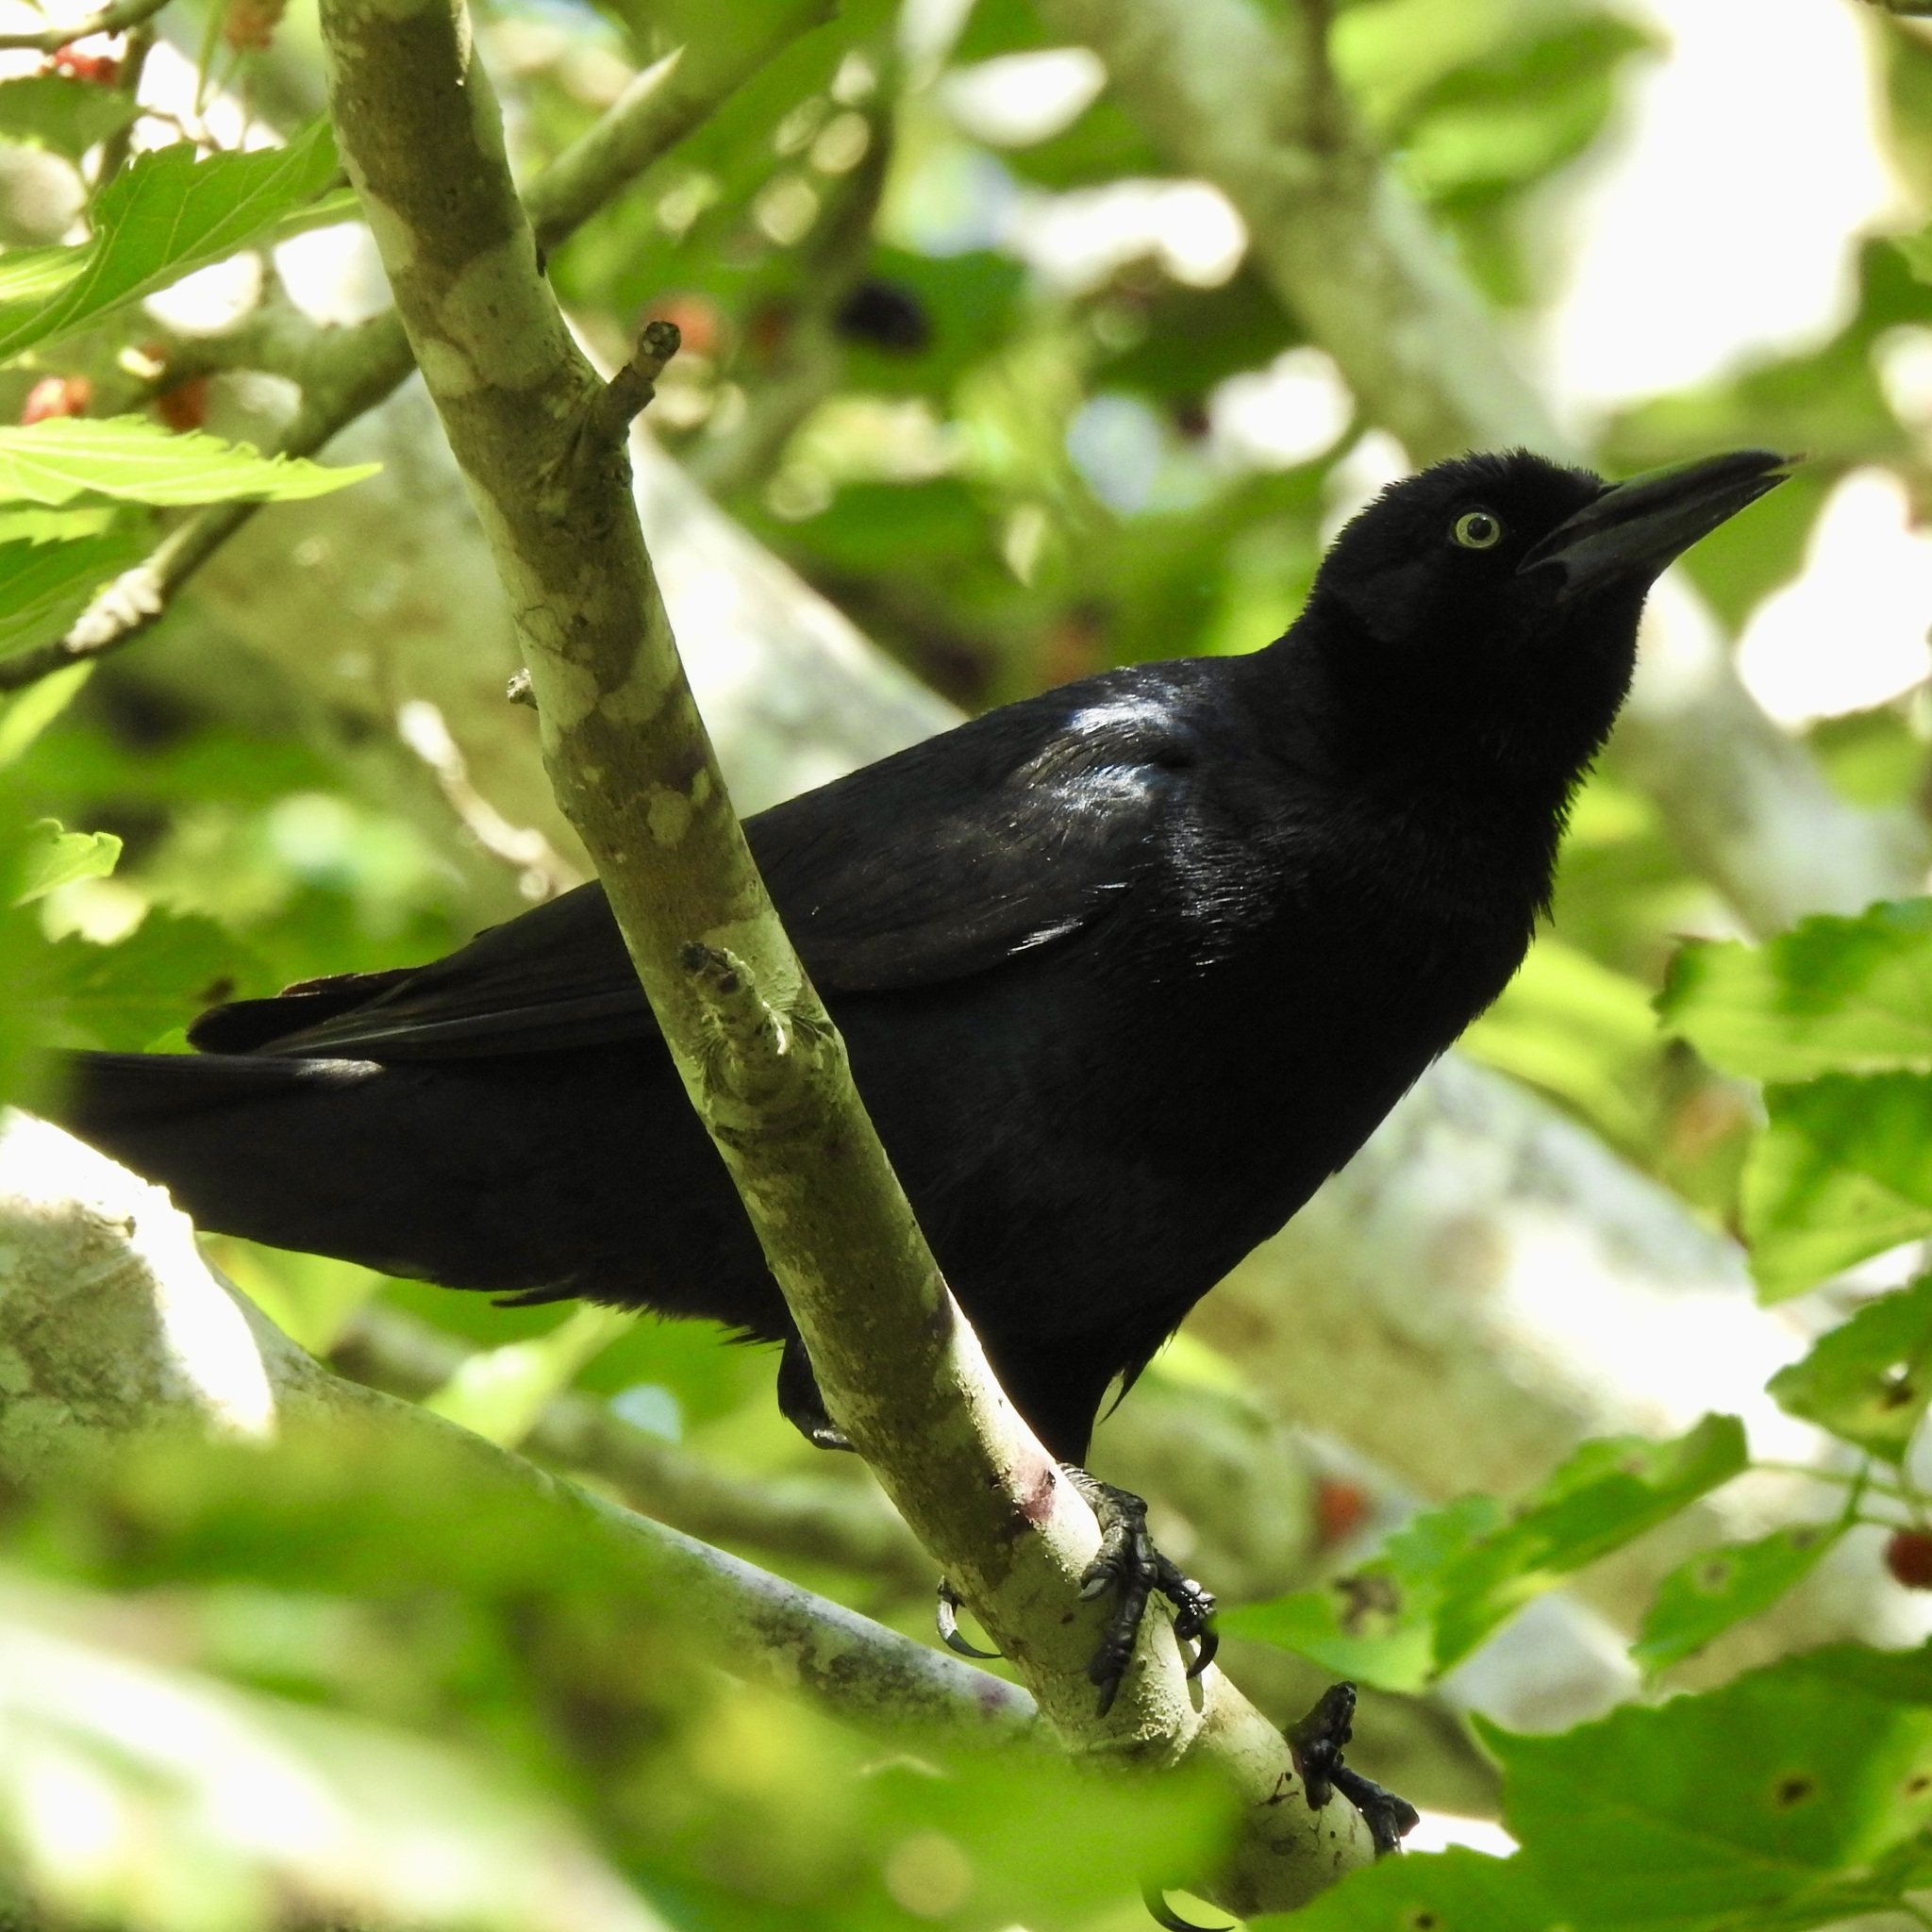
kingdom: Animalia
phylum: Chordata
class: Aves
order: Passeriformes
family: Icteridae
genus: Quiscalus
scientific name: Quiscalus mexicanus
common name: Great-tailed grackle
